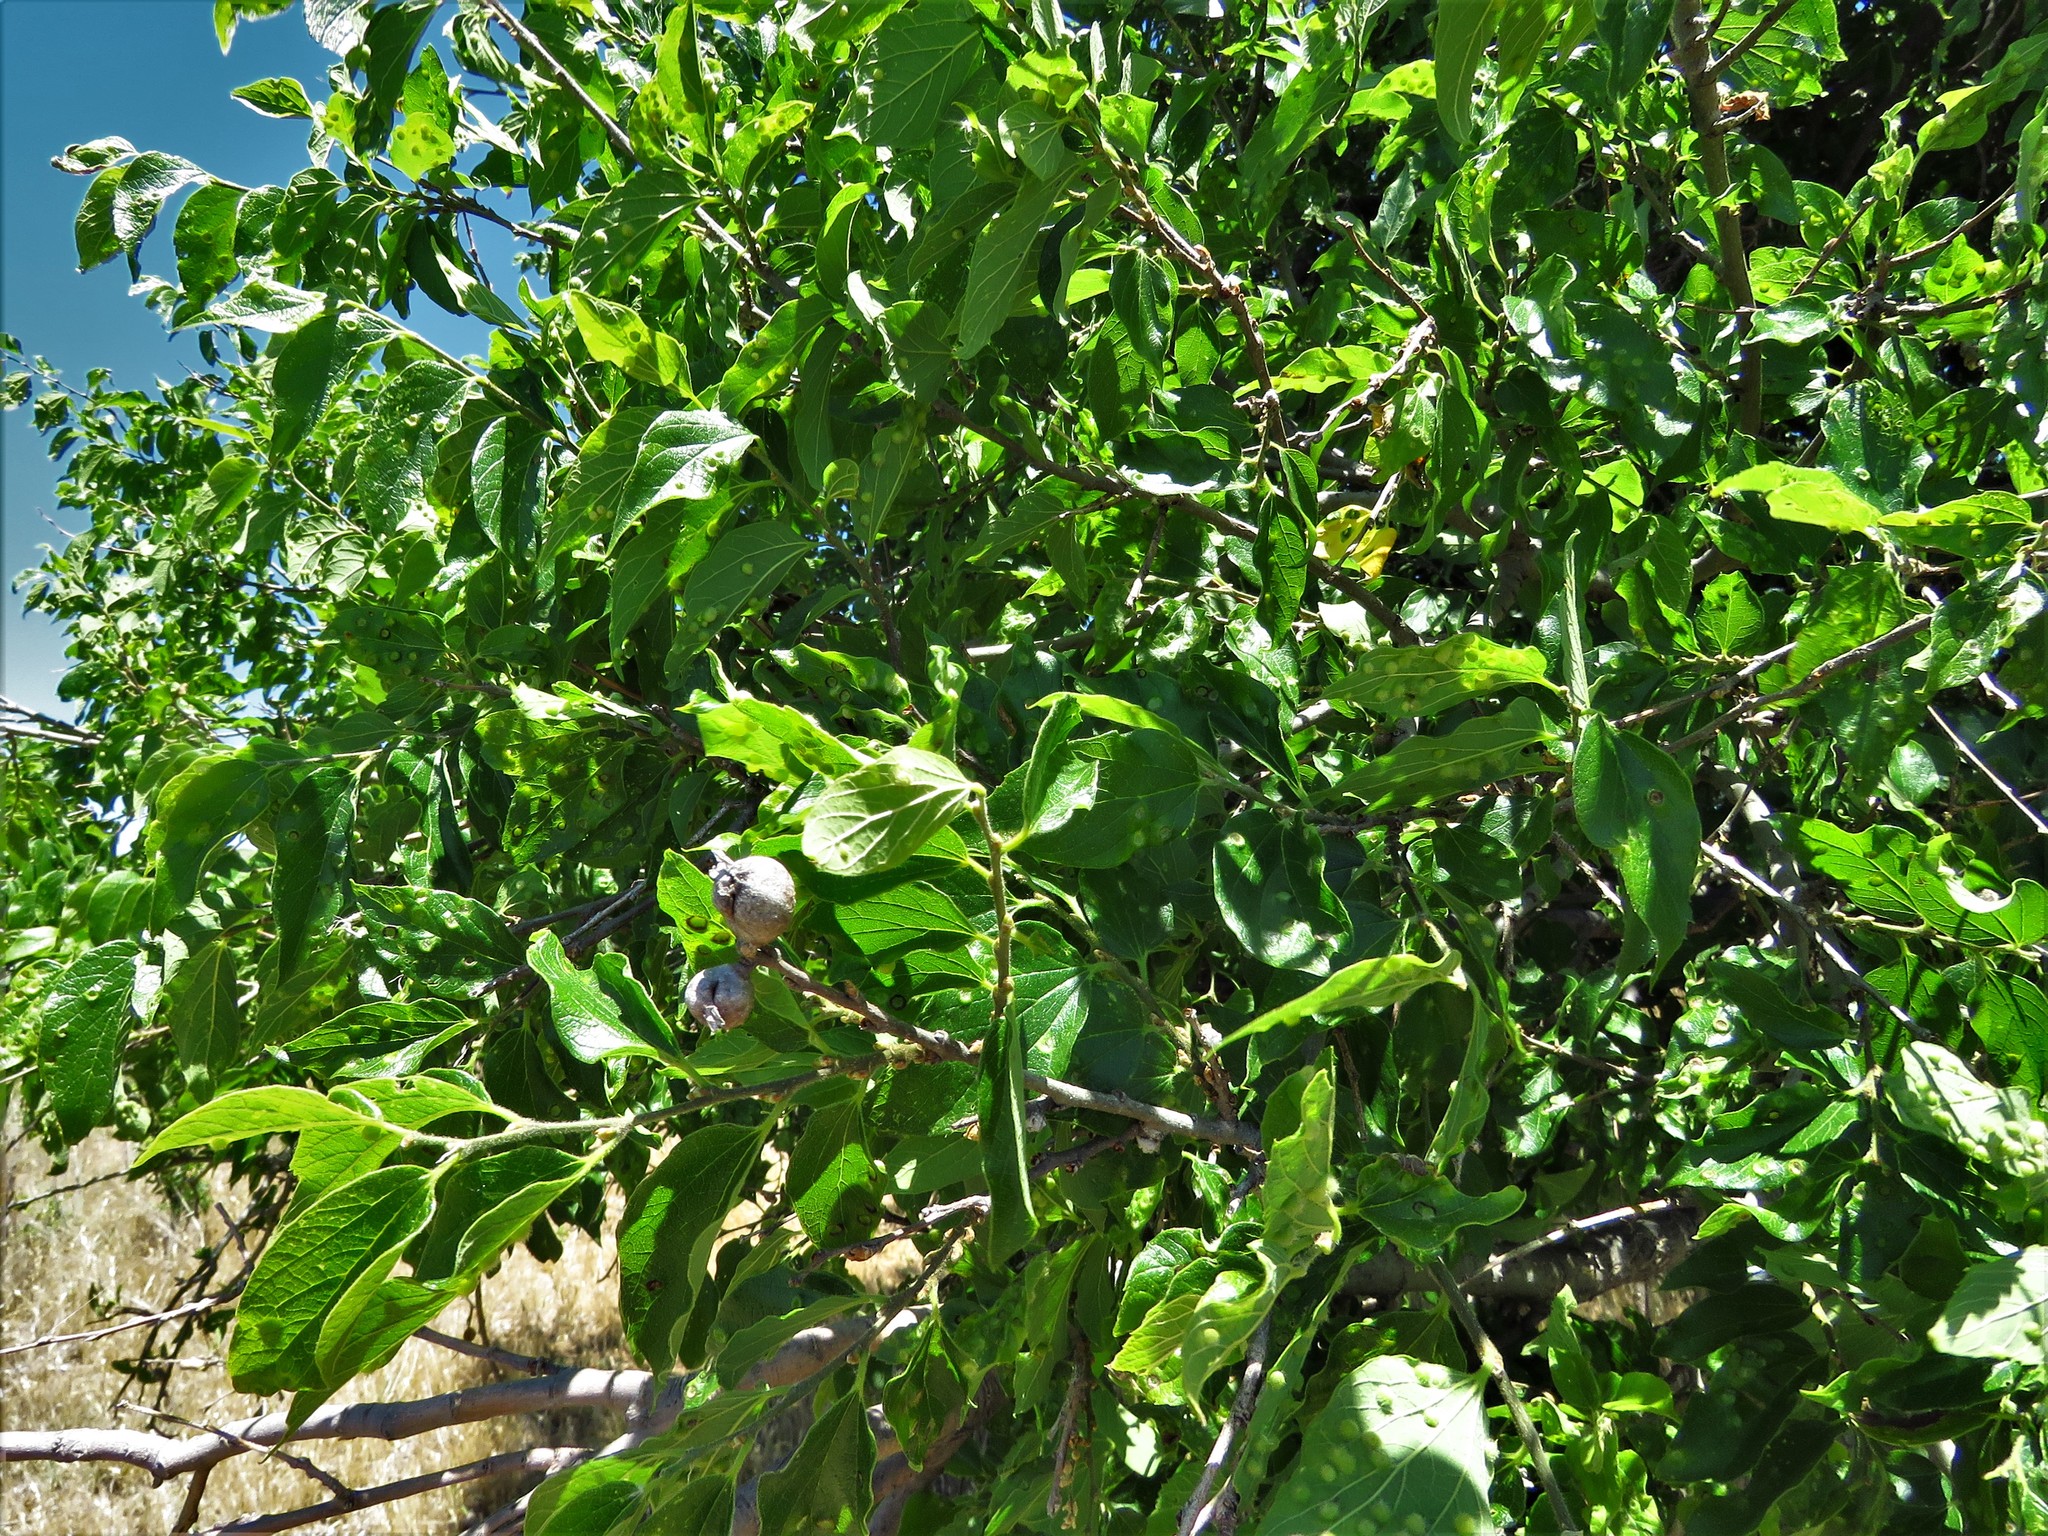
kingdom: Plantae
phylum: Tracheophyta
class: Magnoliopsida
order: Rosales
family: Cannabaceae
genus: Celtis
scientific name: Celtis laevigata
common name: Sugarberry
